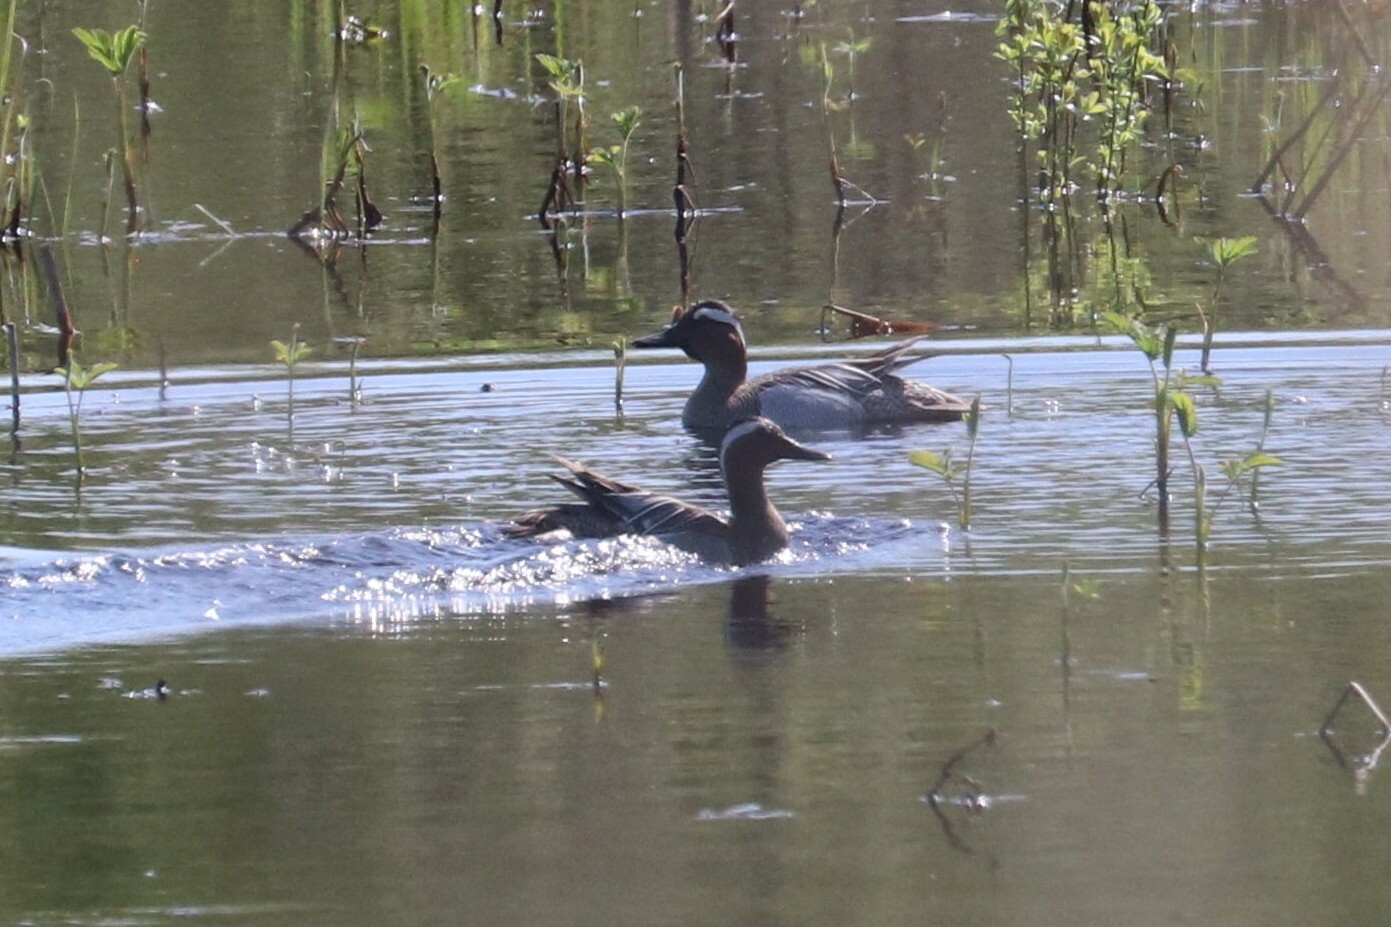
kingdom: Animalia
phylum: Chordata
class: Aves
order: Anseriformes
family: Anatidae
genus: Spatula
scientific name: Spatula querquedula
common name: Garganey
